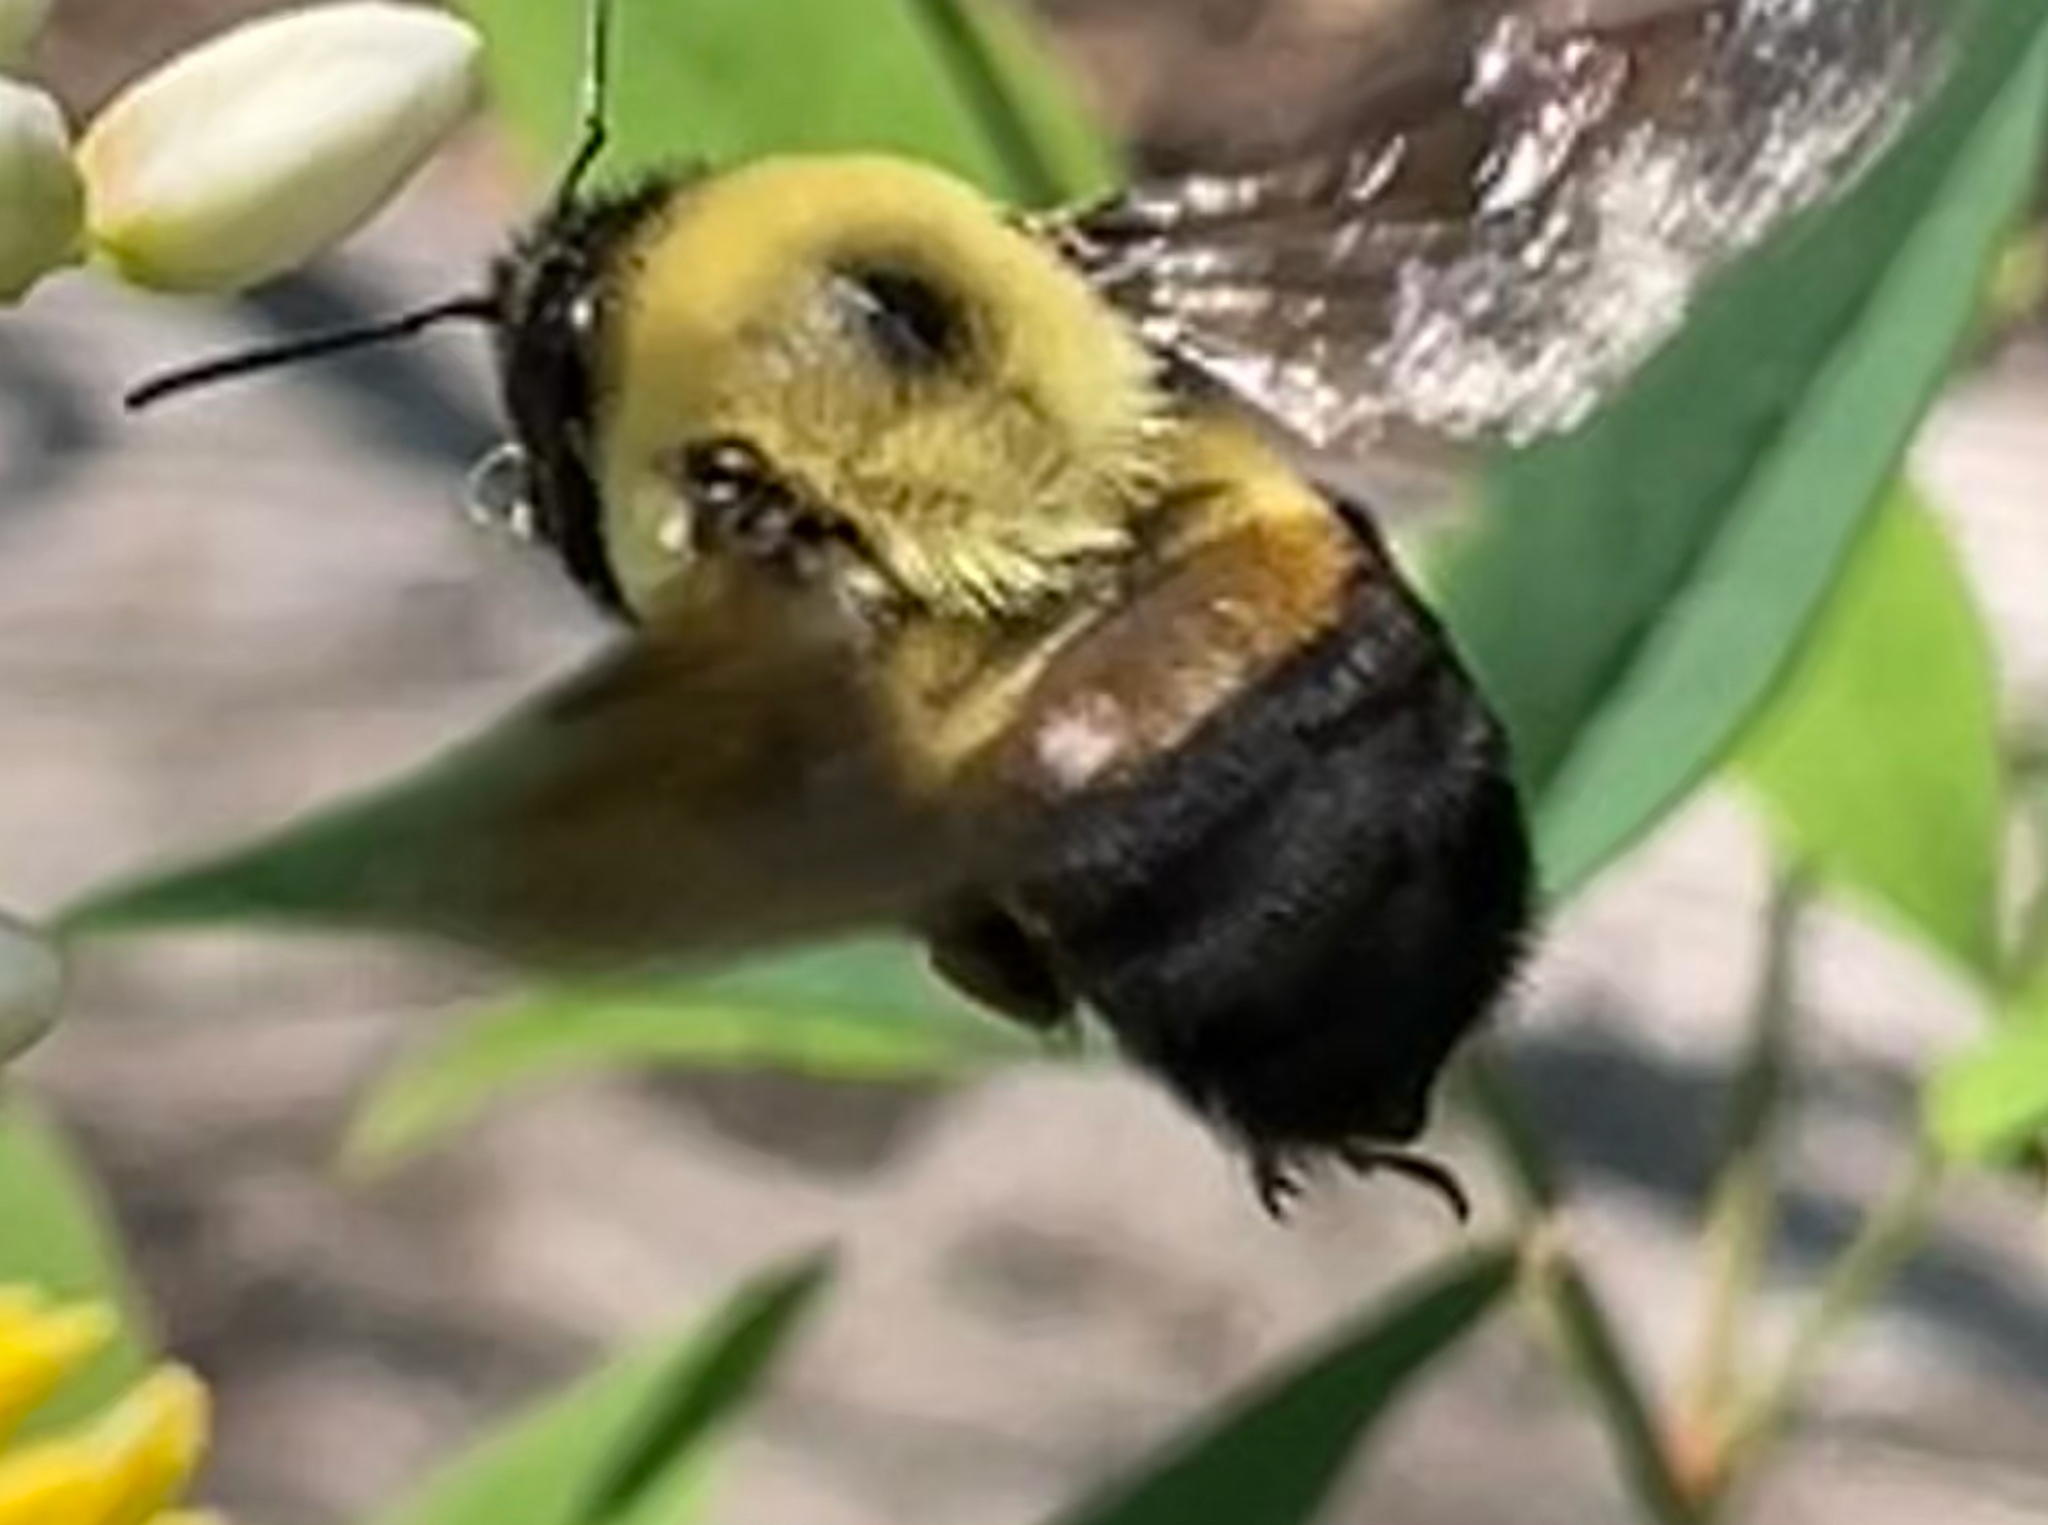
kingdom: Animalia
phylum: Arthropoda
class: Insecta
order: Hymenoptera
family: Apidae
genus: Bombus
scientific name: Bombus griseocollis
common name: Brown-belted bumble bee
